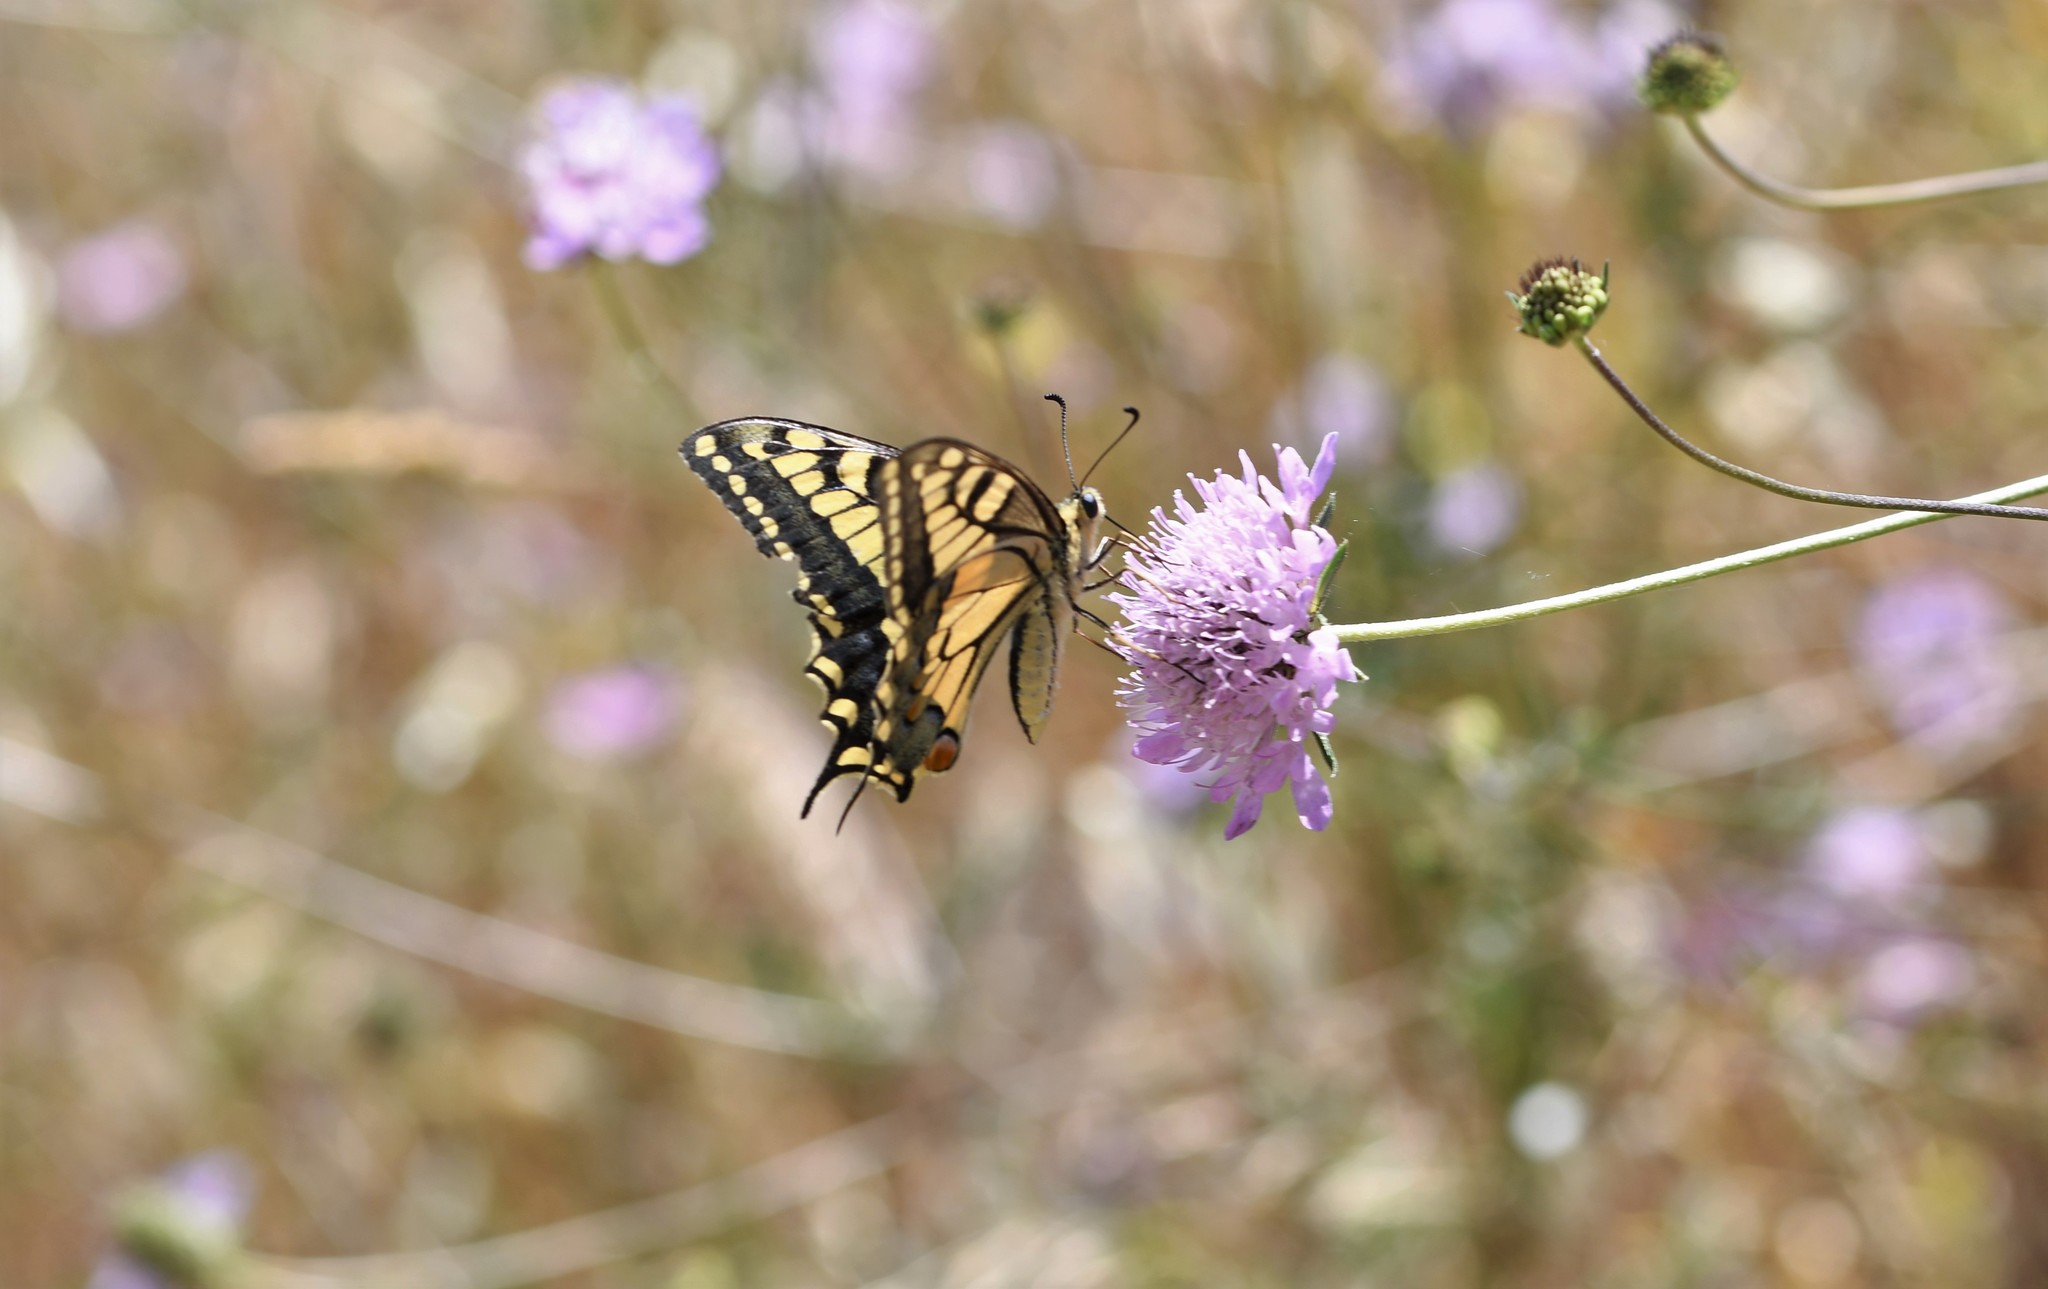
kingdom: Animalia
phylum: Arthropoda
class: Insecta
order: Lepidoptera
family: Papilionidae
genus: Papilio
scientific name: Papilio machaon
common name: Swallowtail
